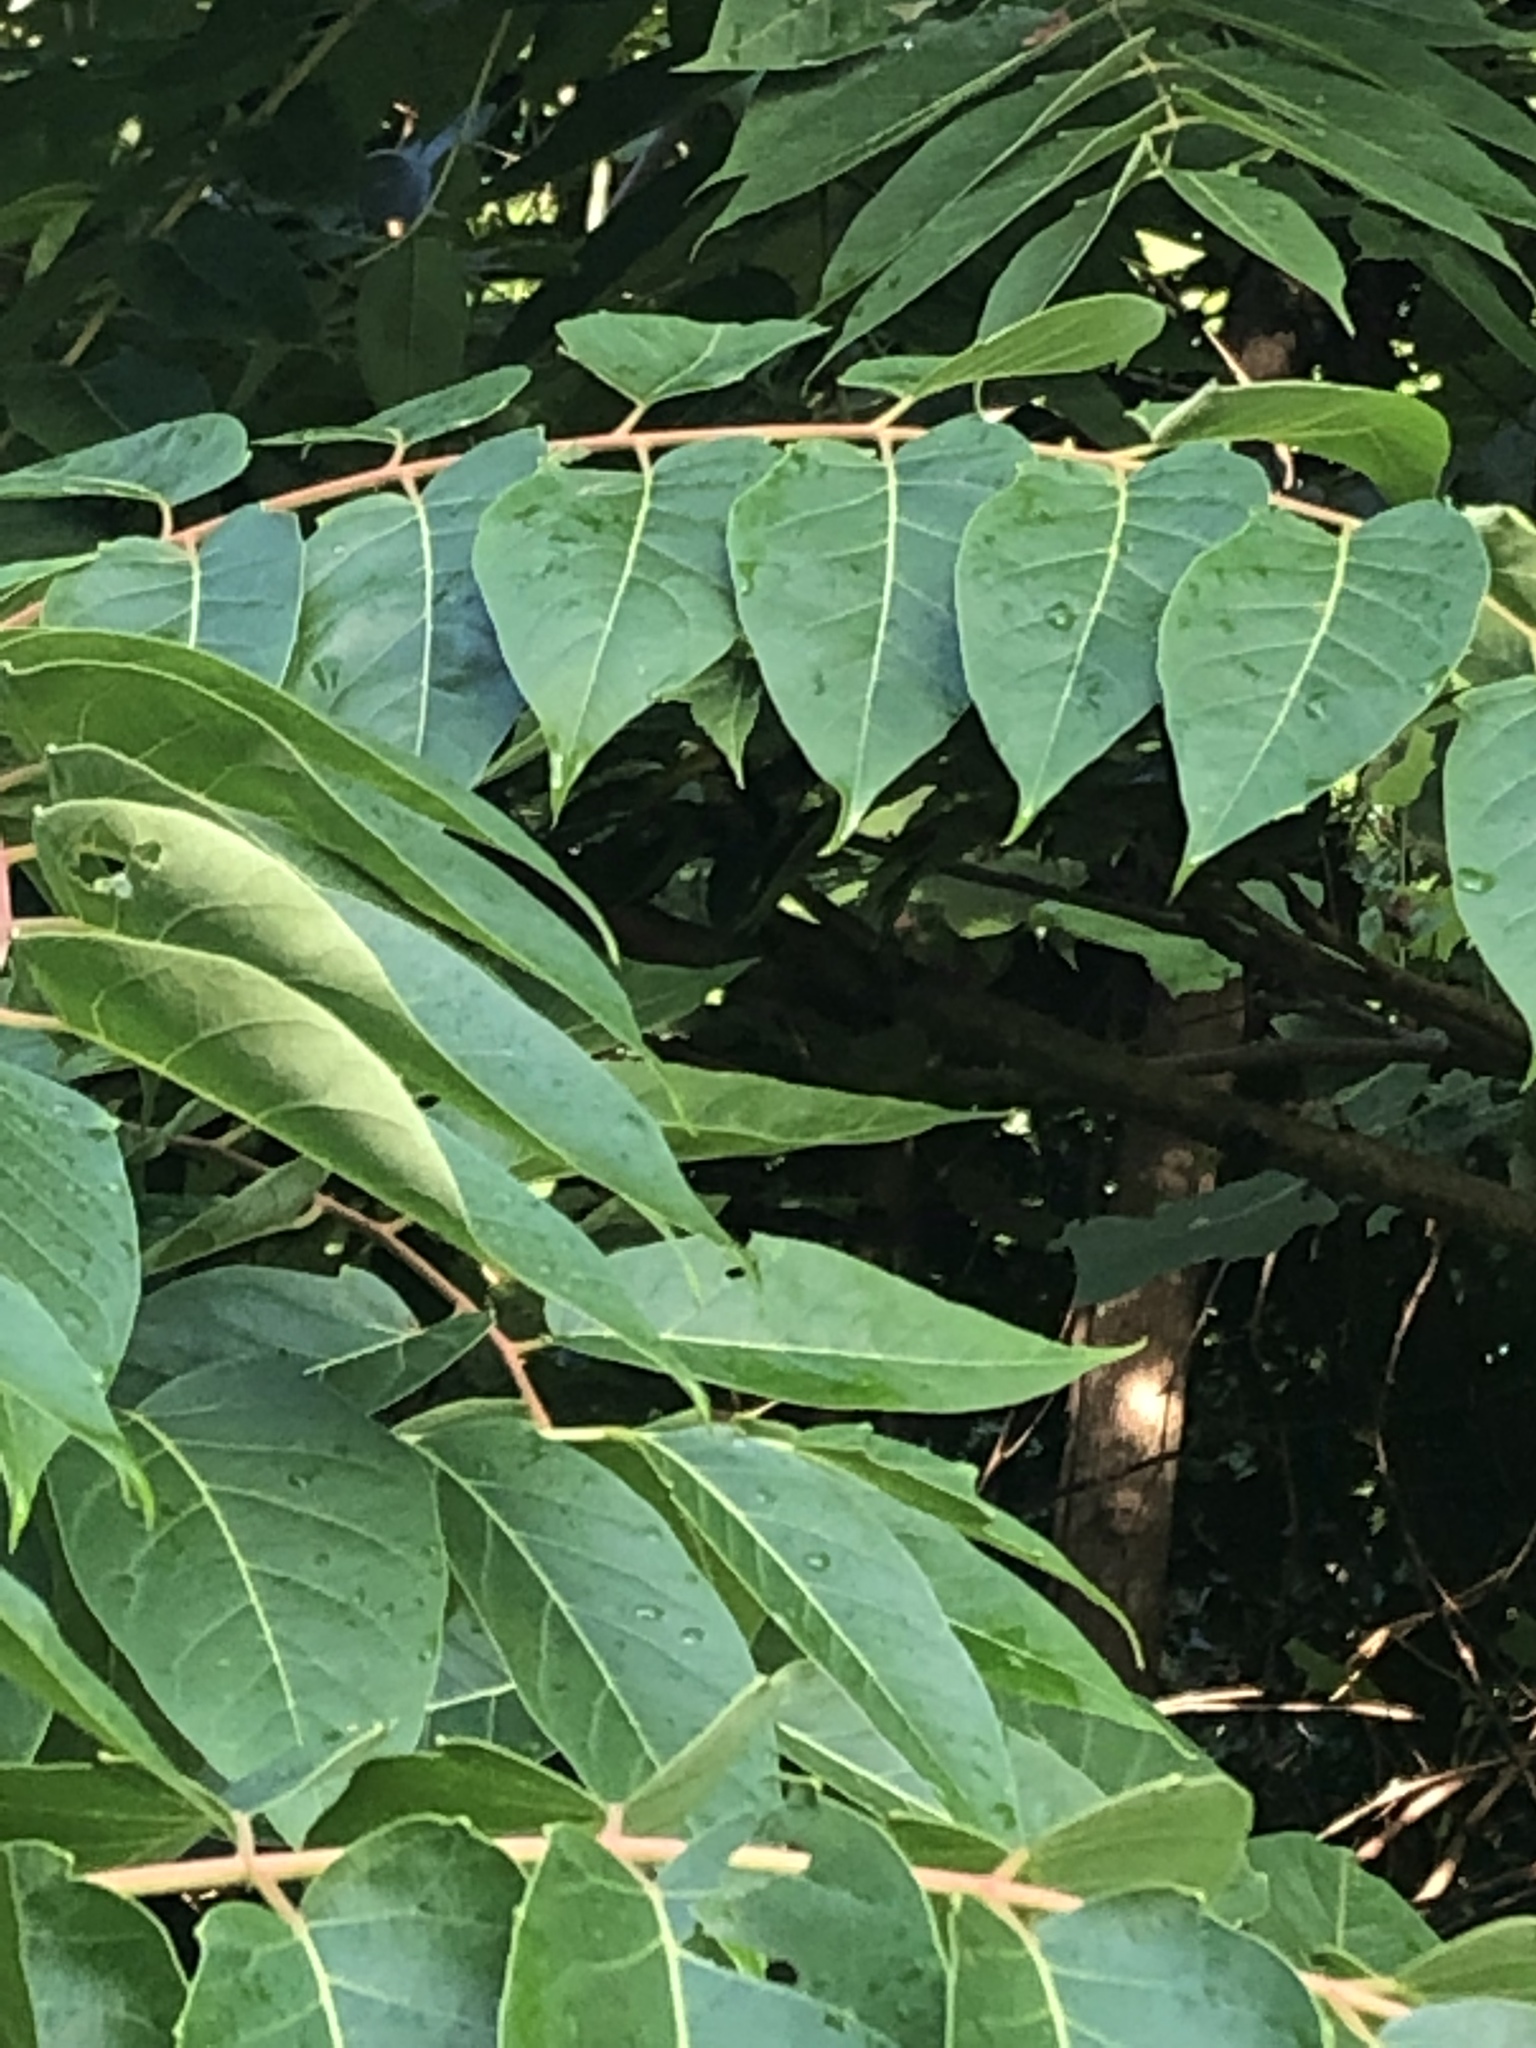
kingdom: Plantae
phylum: Tracheophyta
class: Magnoliopsida
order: Sapindales
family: Simaroubaceae
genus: Ailanthus
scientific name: Ailanthus altissima
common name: Tree-of-heaven
